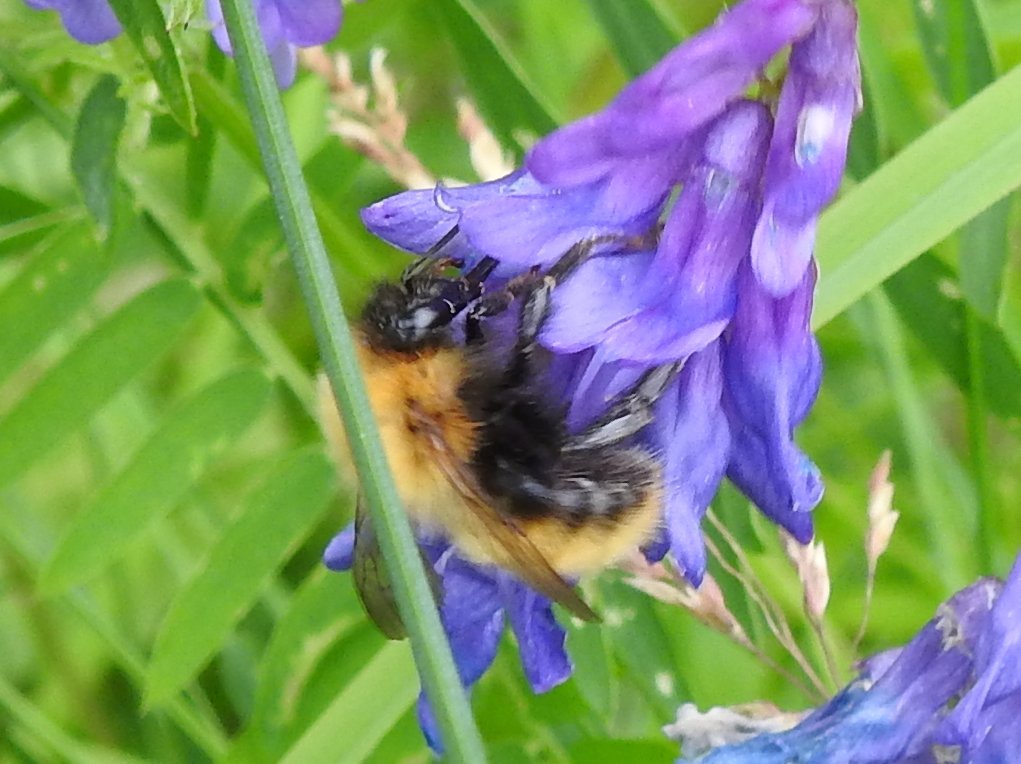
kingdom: Animalia
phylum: Arthropoda
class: Insecta
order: Hymenoptera
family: Apidae
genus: Bombus
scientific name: Bombus pascuorum
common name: Common carder bee
